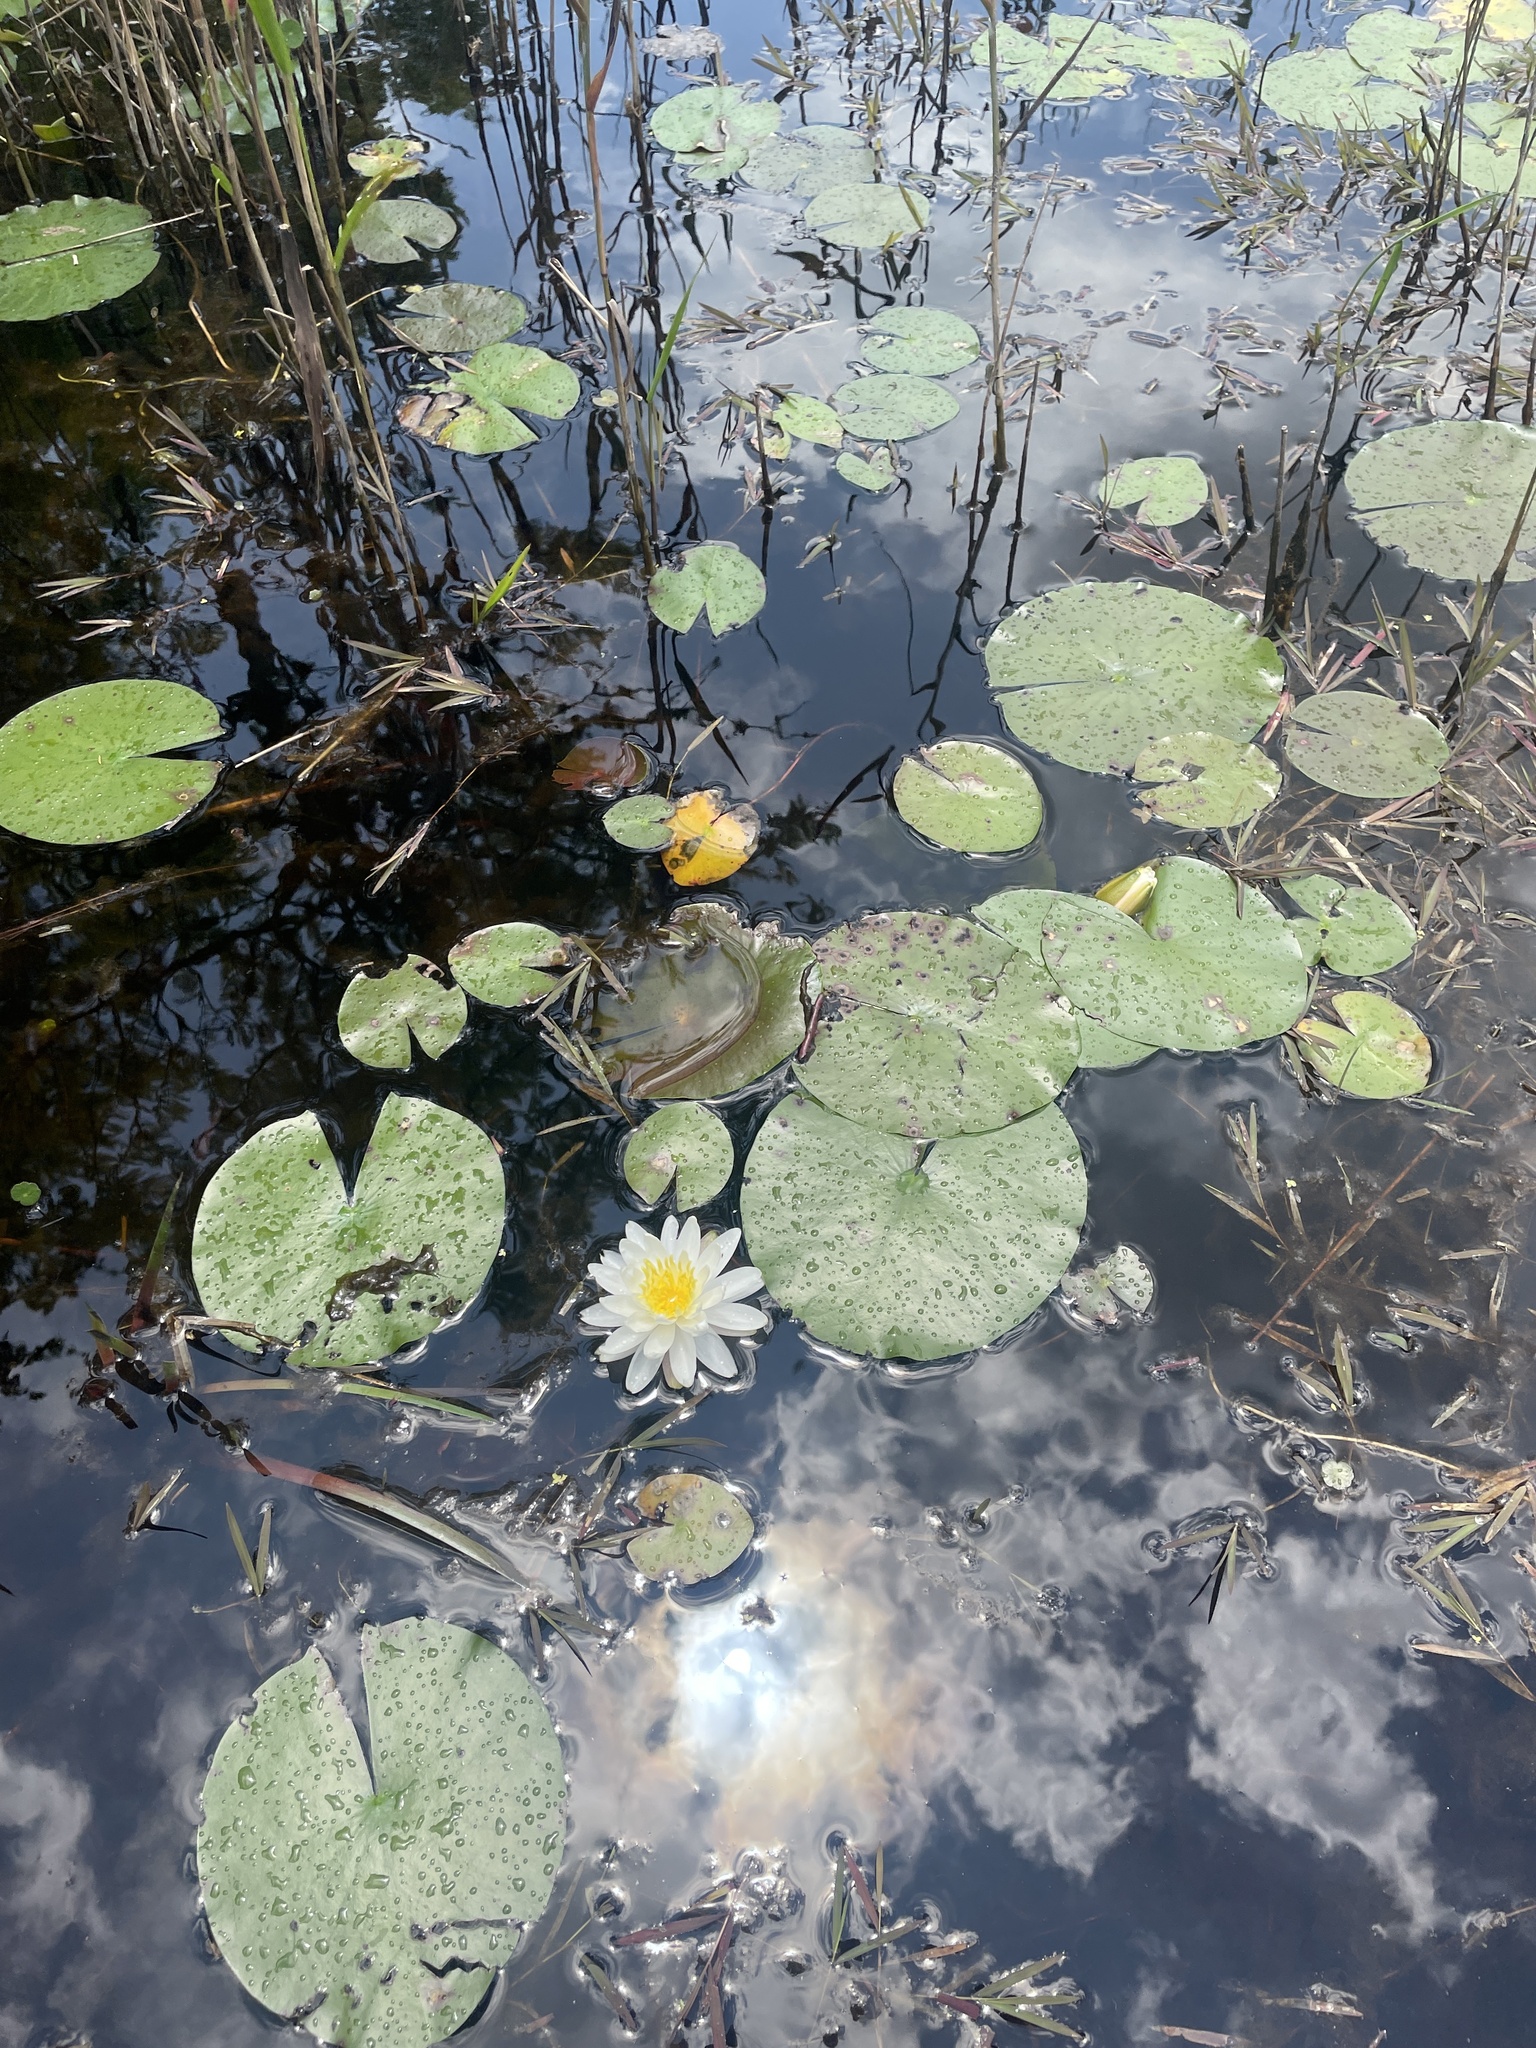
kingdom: Plantae
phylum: Tracheophyta
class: Magnoliopsida
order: Nymphaeales
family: Nymphaeaceae
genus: Nymphaea
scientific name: Nymphaea odorata
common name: Fragrant water-lily
